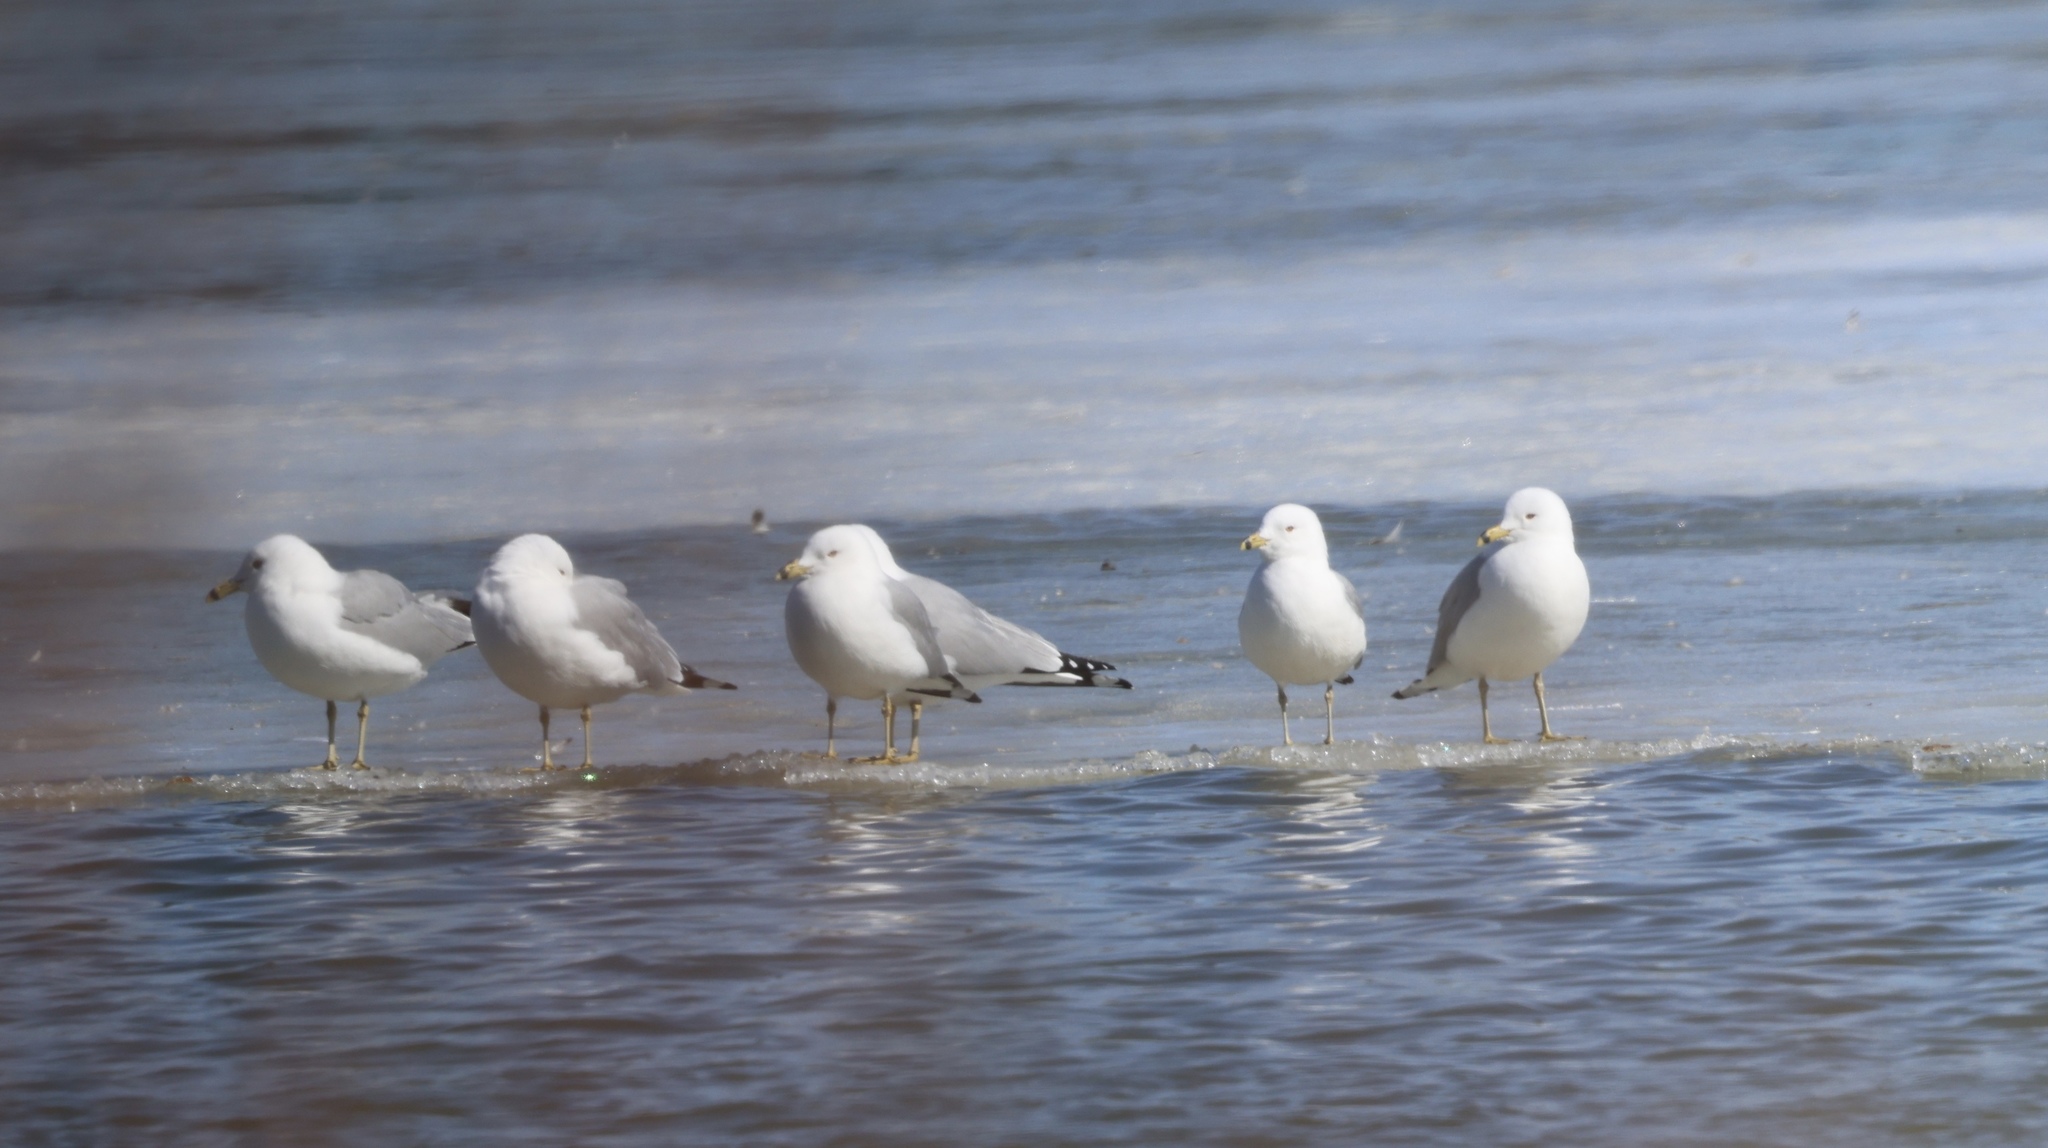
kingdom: Animalia
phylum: Chordata
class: Aves
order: Charadriiformes
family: Laridae
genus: Larus
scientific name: Larus delawarensis
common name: Ring-billed gull
